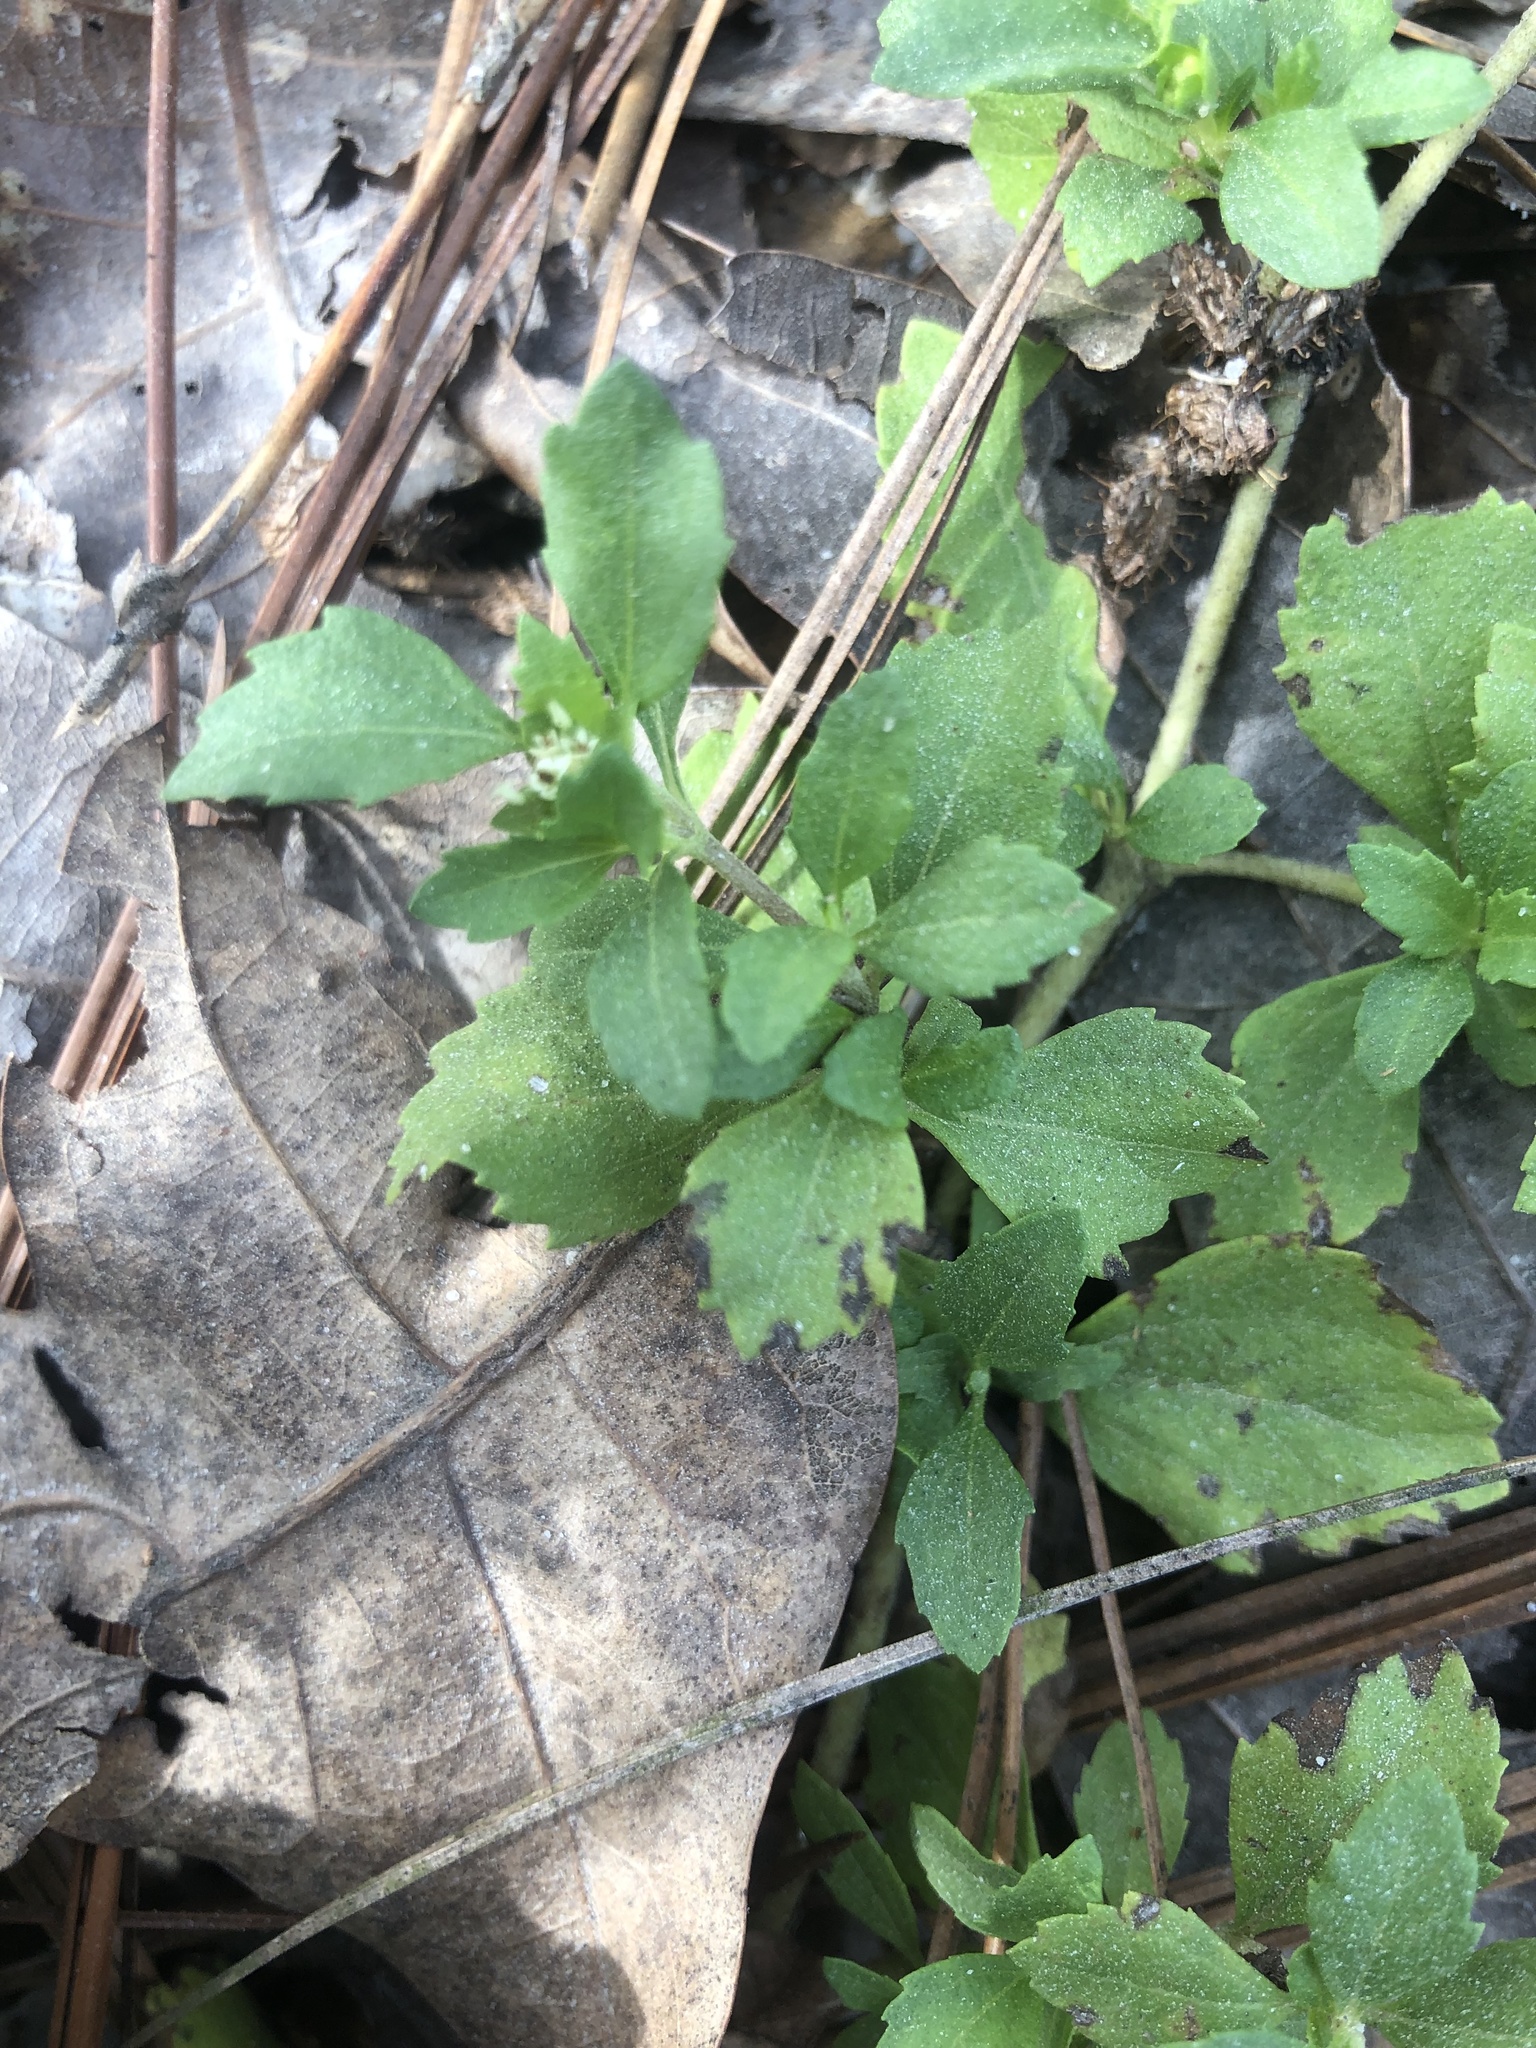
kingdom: Plantae
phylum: Tracheophyta
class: Magnoliopsida
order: Asterales
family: Asteraceae
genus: Acanthospermum
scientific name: Acanthospermum australe
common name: Paraguayan starbur
